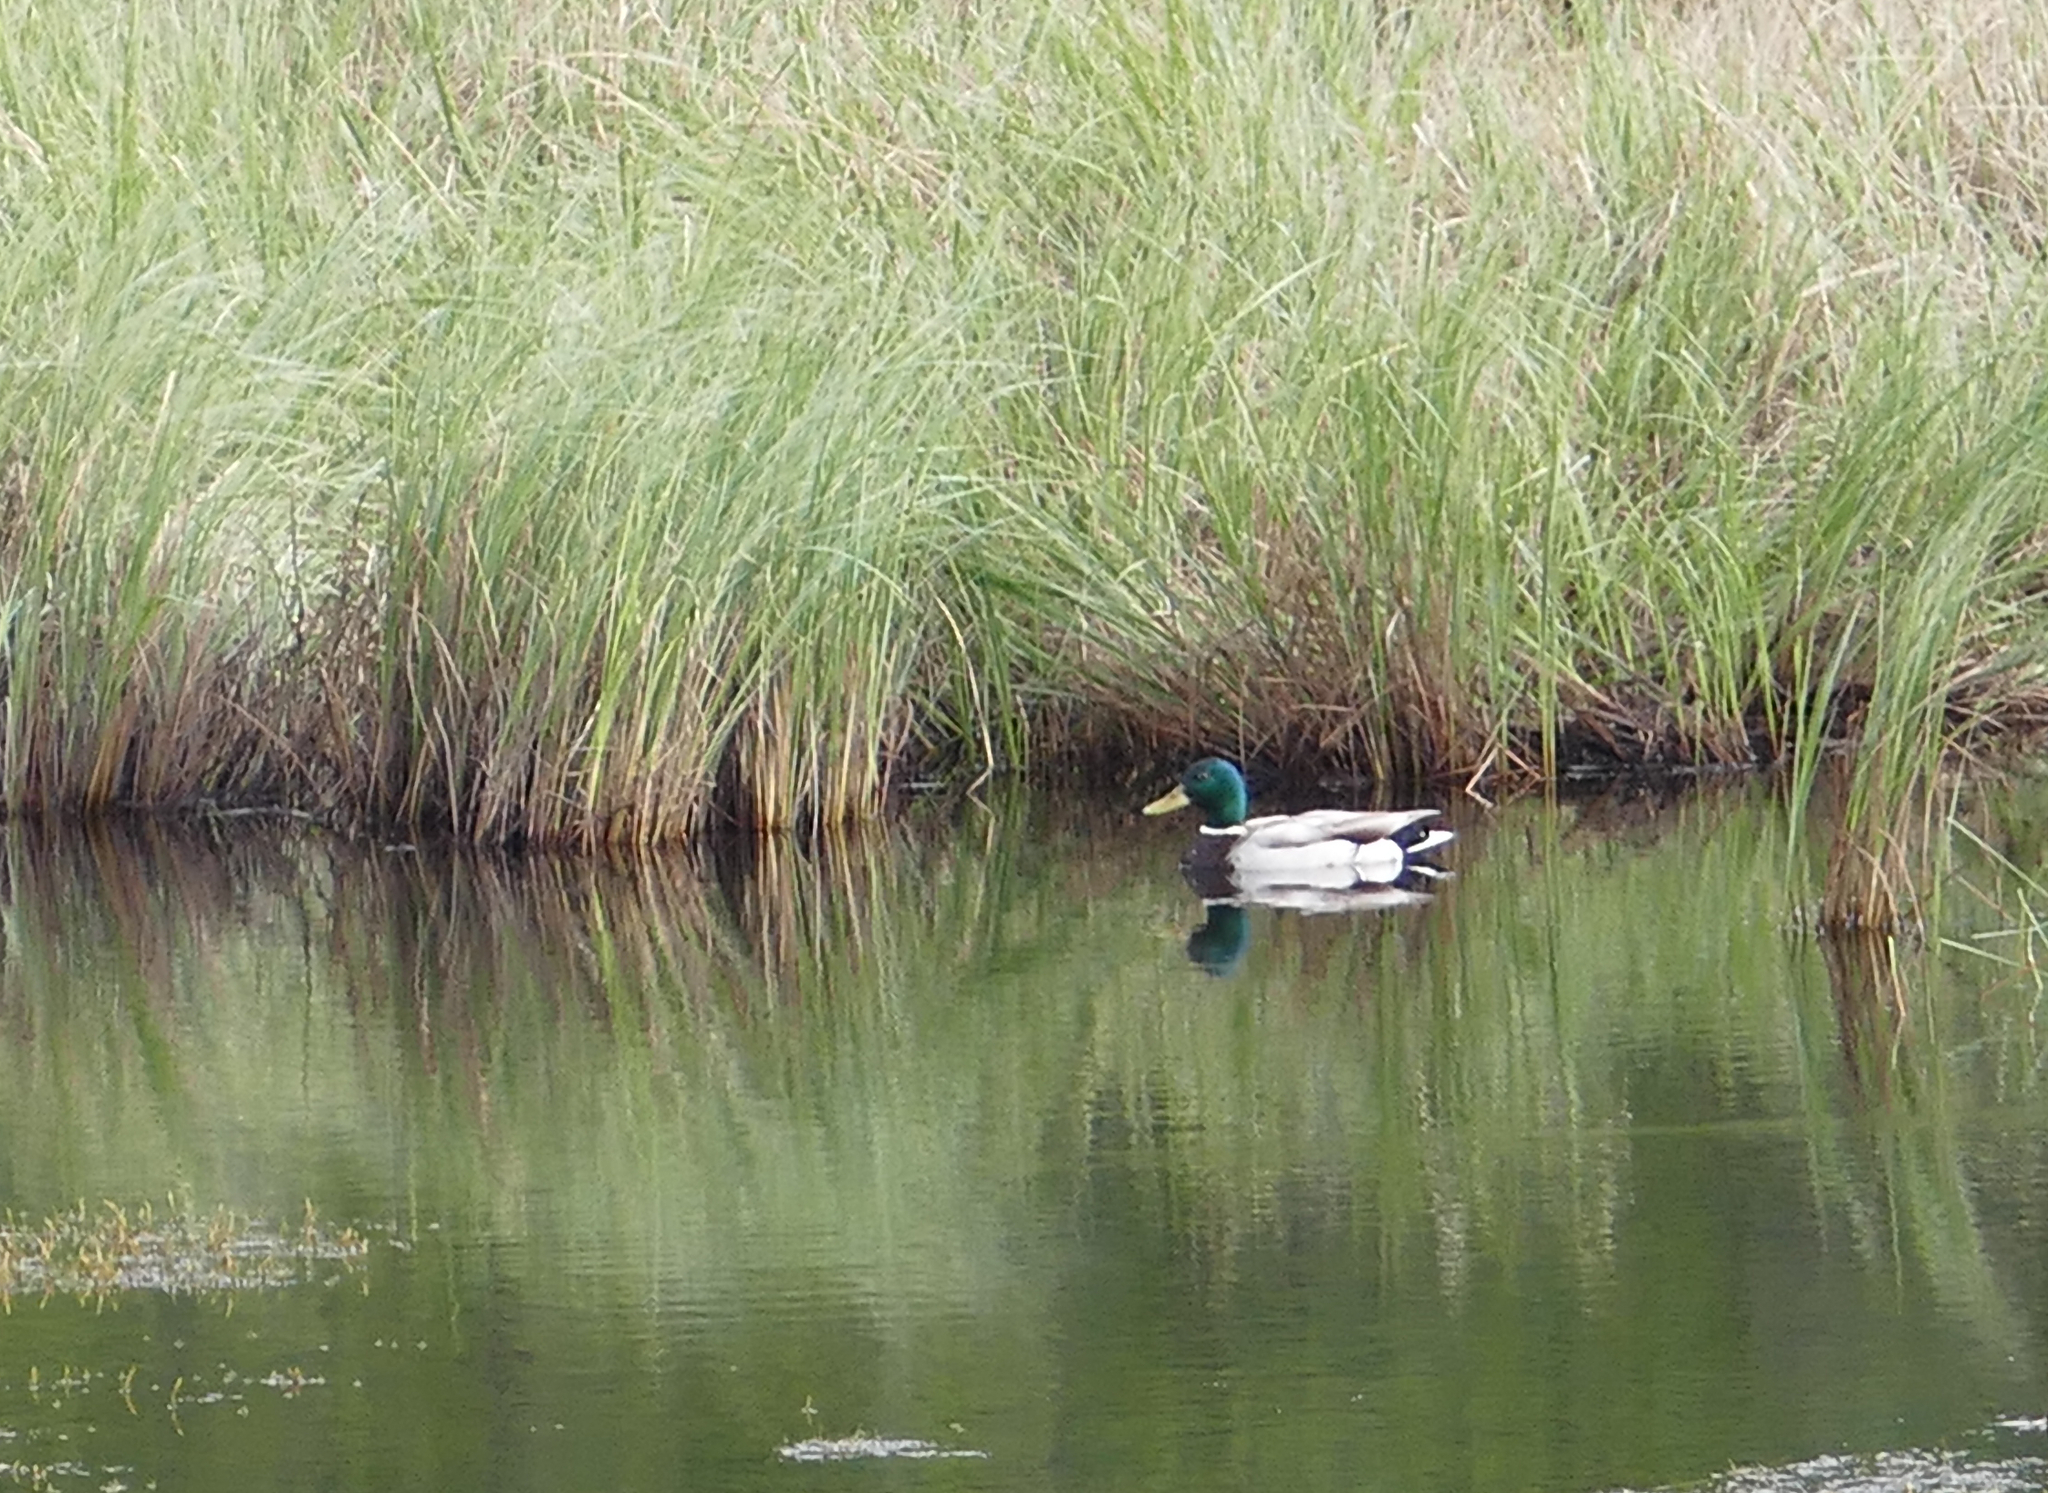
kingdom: Animalia
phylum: Chordata
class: Aves
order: Anseriformes
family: Anatidae
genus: Anas
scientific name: Anas platyrhynchos
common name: Mallard
